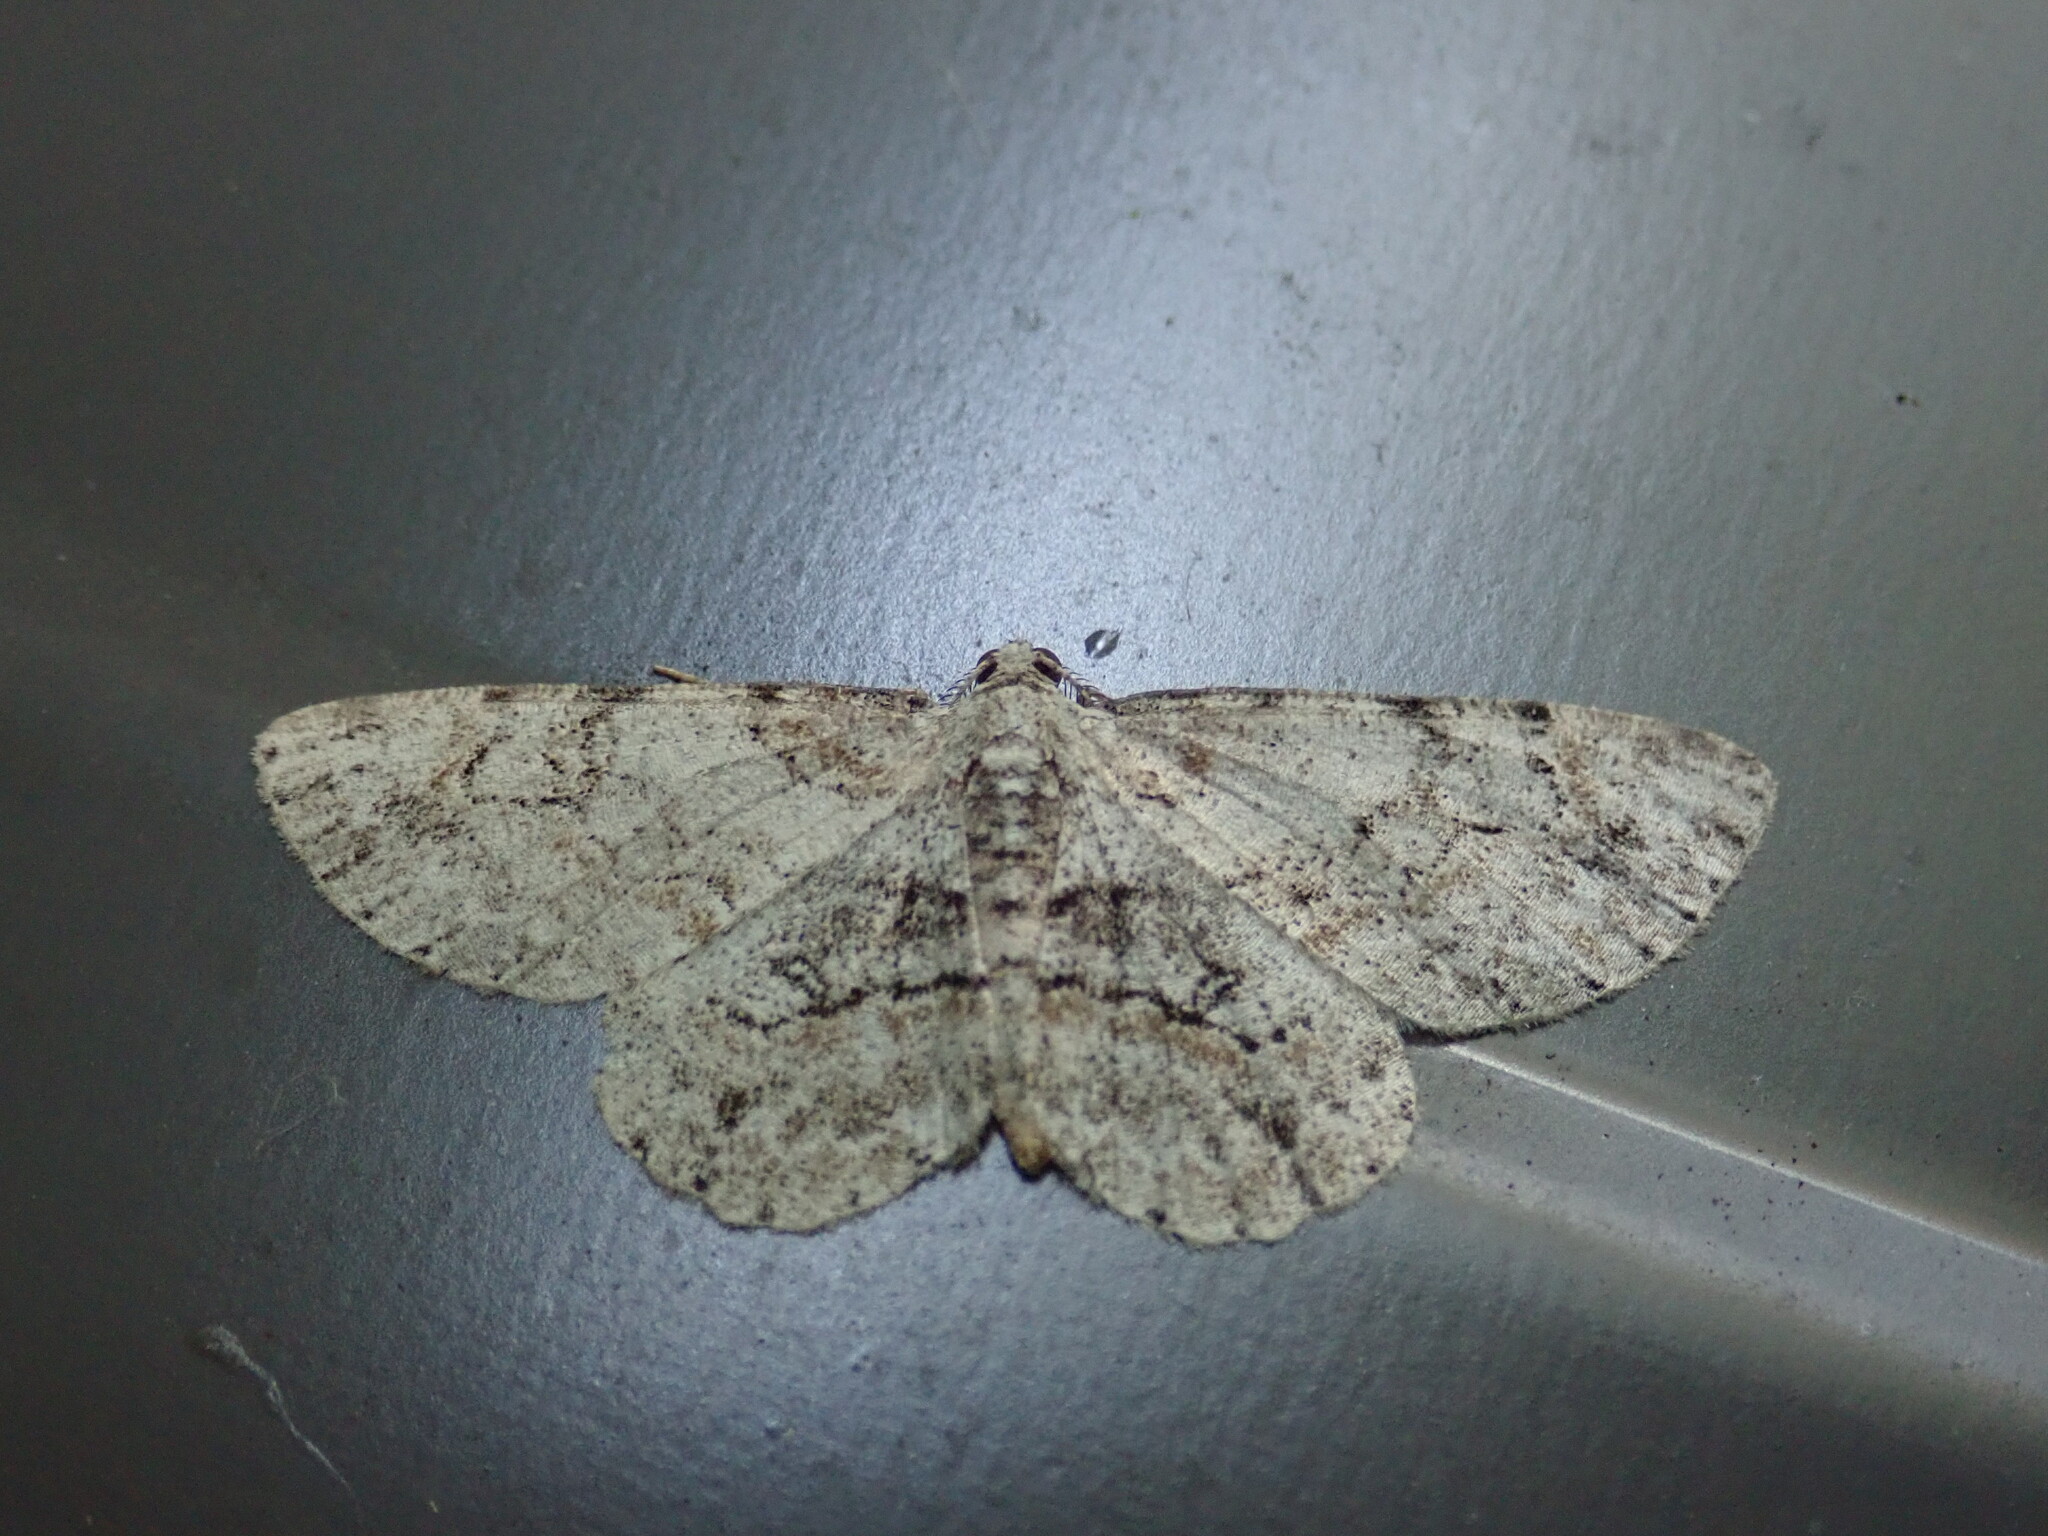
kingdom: Animalia
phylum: Arthropoda
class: Insecta
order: Lepidoptera
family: Geometridae
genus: Iridopsis
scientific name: Iridopsis ephyraria
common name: Pale-winged gray
